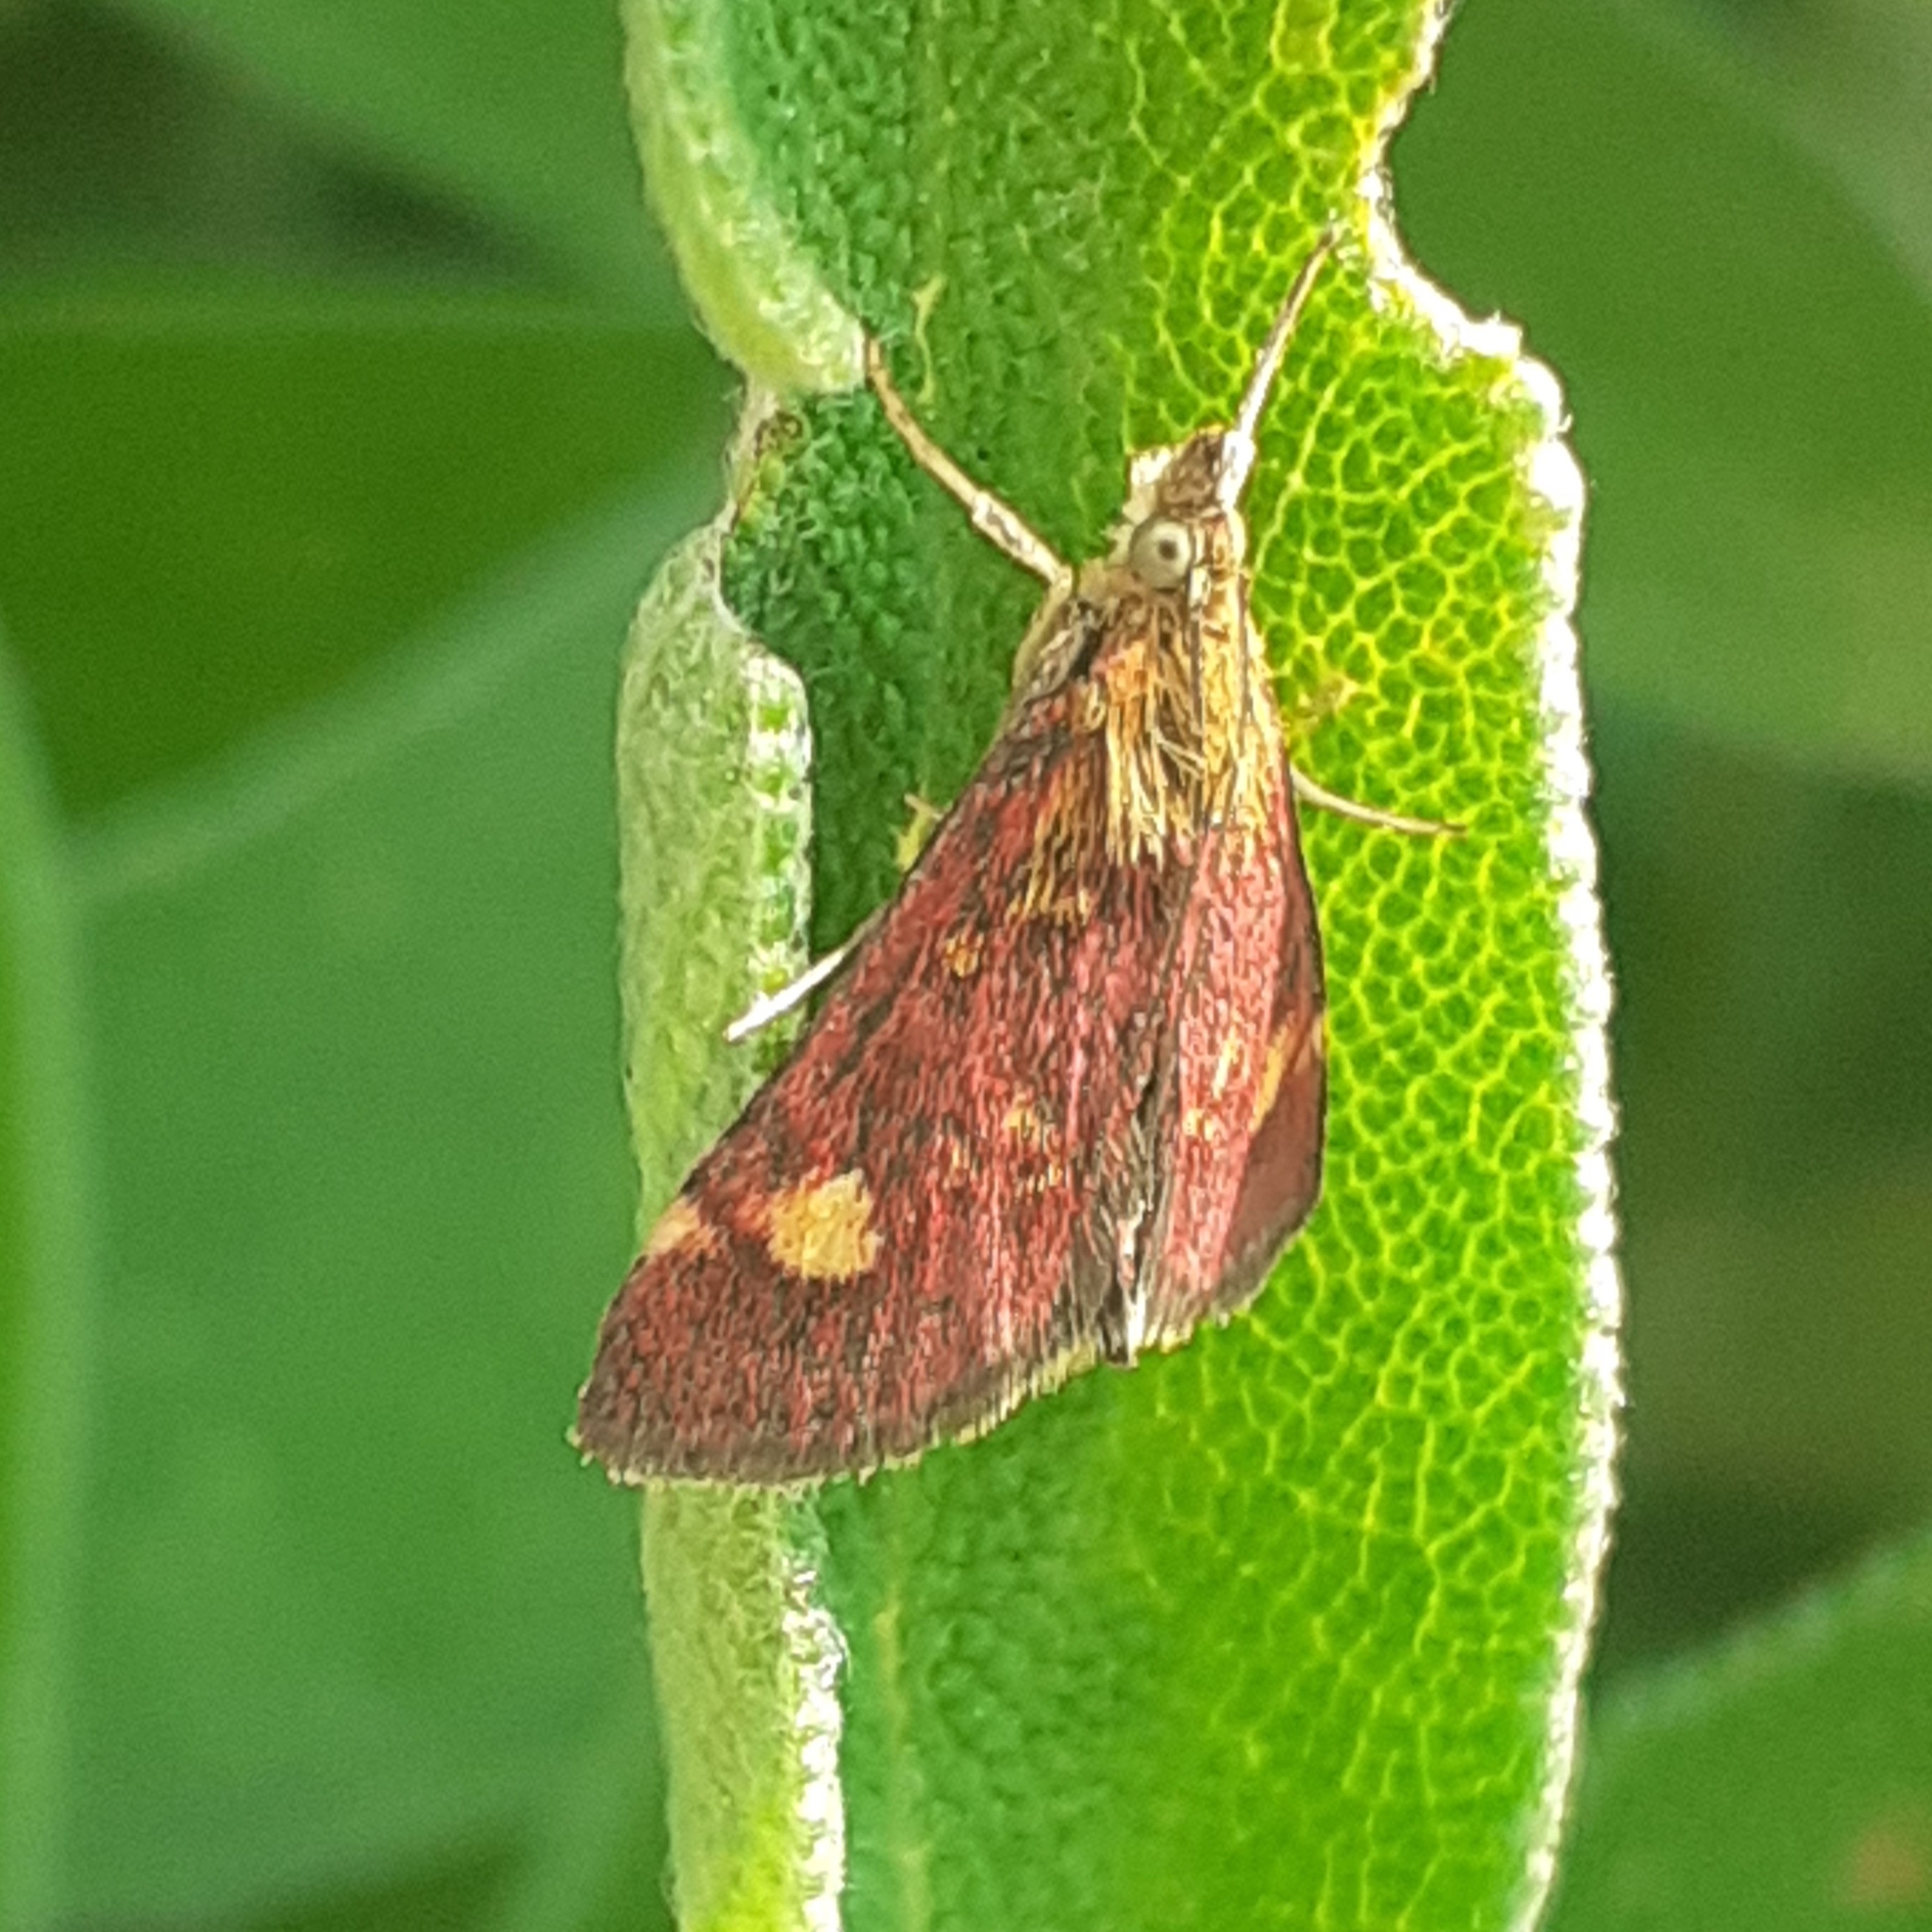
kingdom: Animalia
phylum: Arthropoda
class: Insecta
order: Lepidoptera
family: Crambidae
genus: Pyrausta
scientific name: Pyrausta aurata
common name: Small purple & gold
